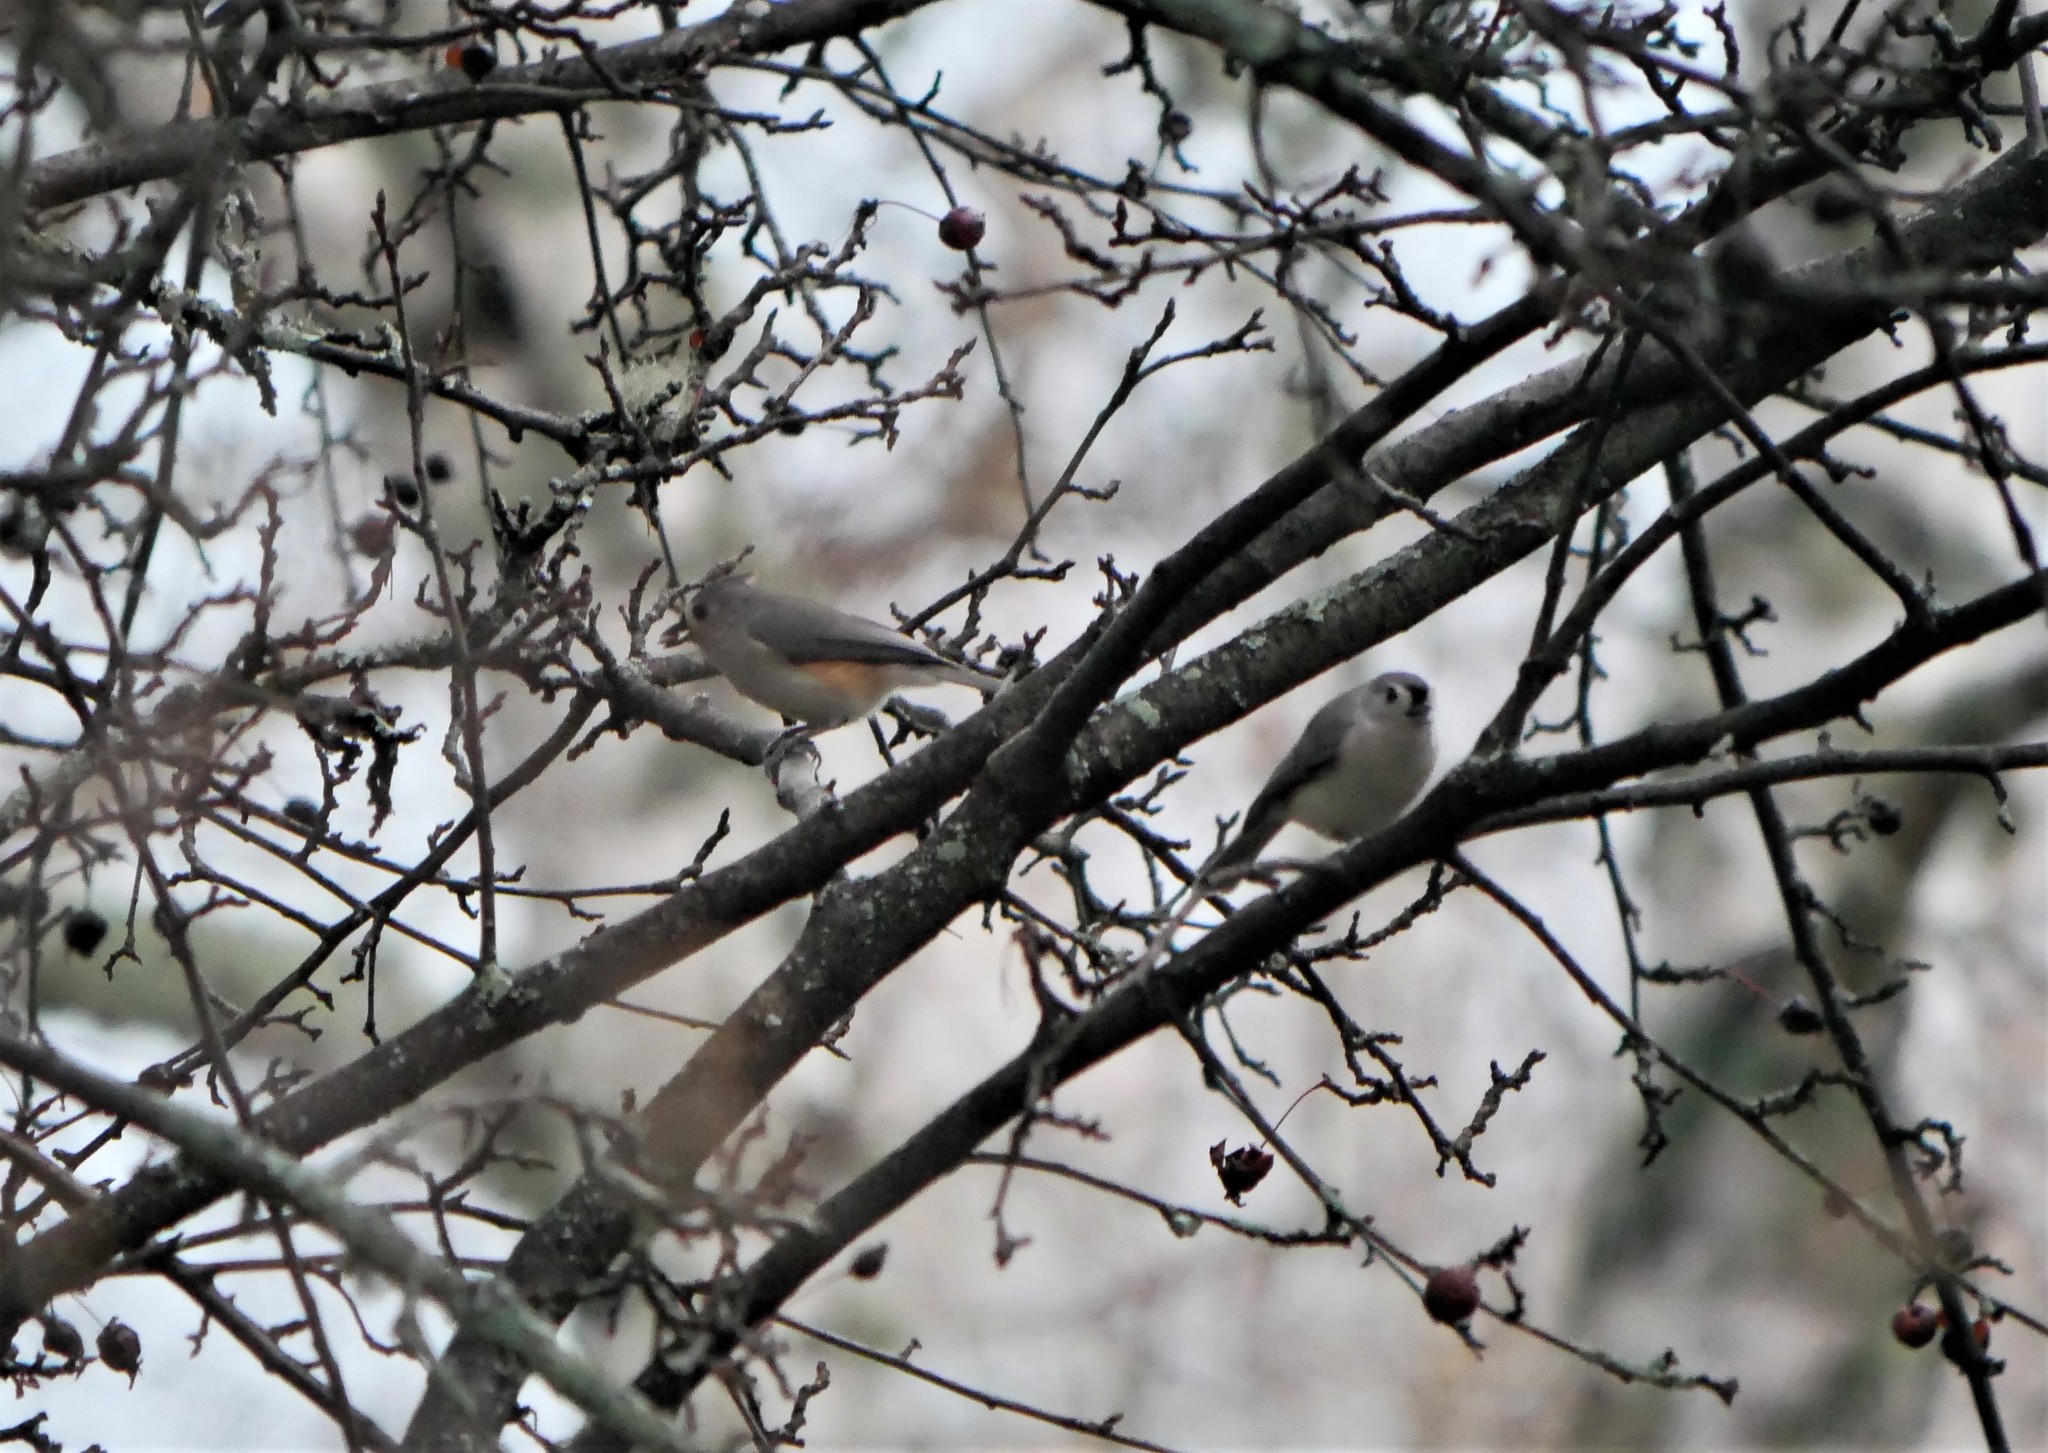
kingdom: Animalia
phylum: Chordata
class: Aves
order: Passeriformes
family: Paridae
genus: Baeolophus
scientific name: Baeolophus bicolor
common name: Tufted titmouse
